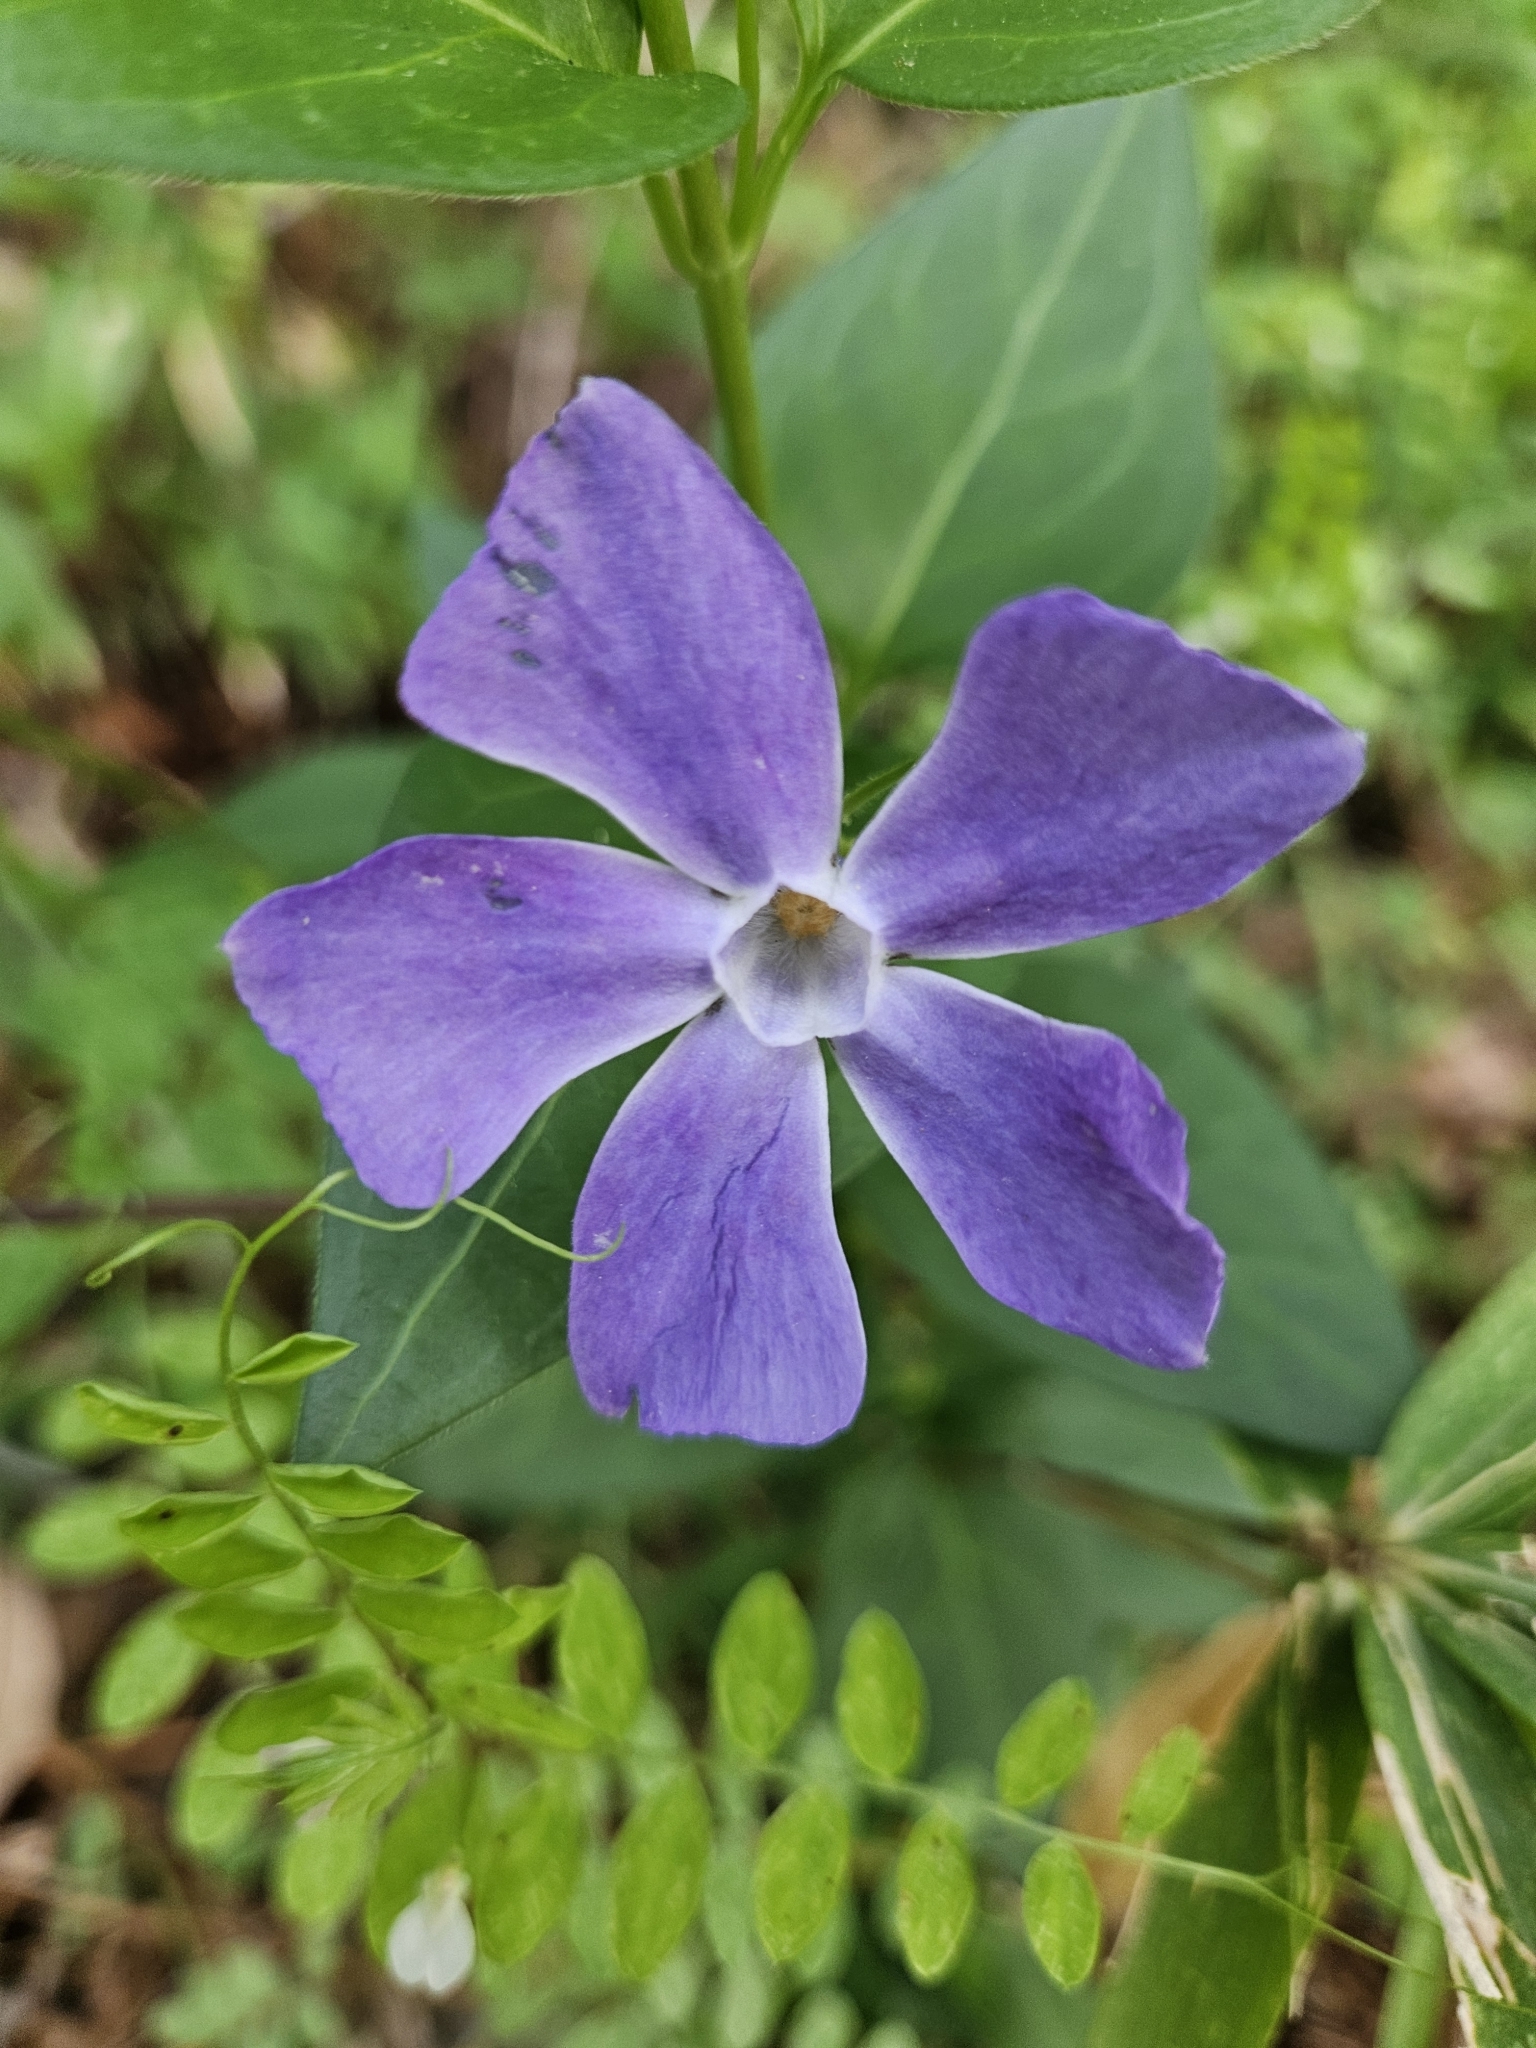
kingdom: Plantae
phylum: Tracheophyta
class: Magnoliopsida
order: Gentianales
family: Apocynaceae
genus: Vinca
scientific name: Vinca major
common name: Greater periwinkle
